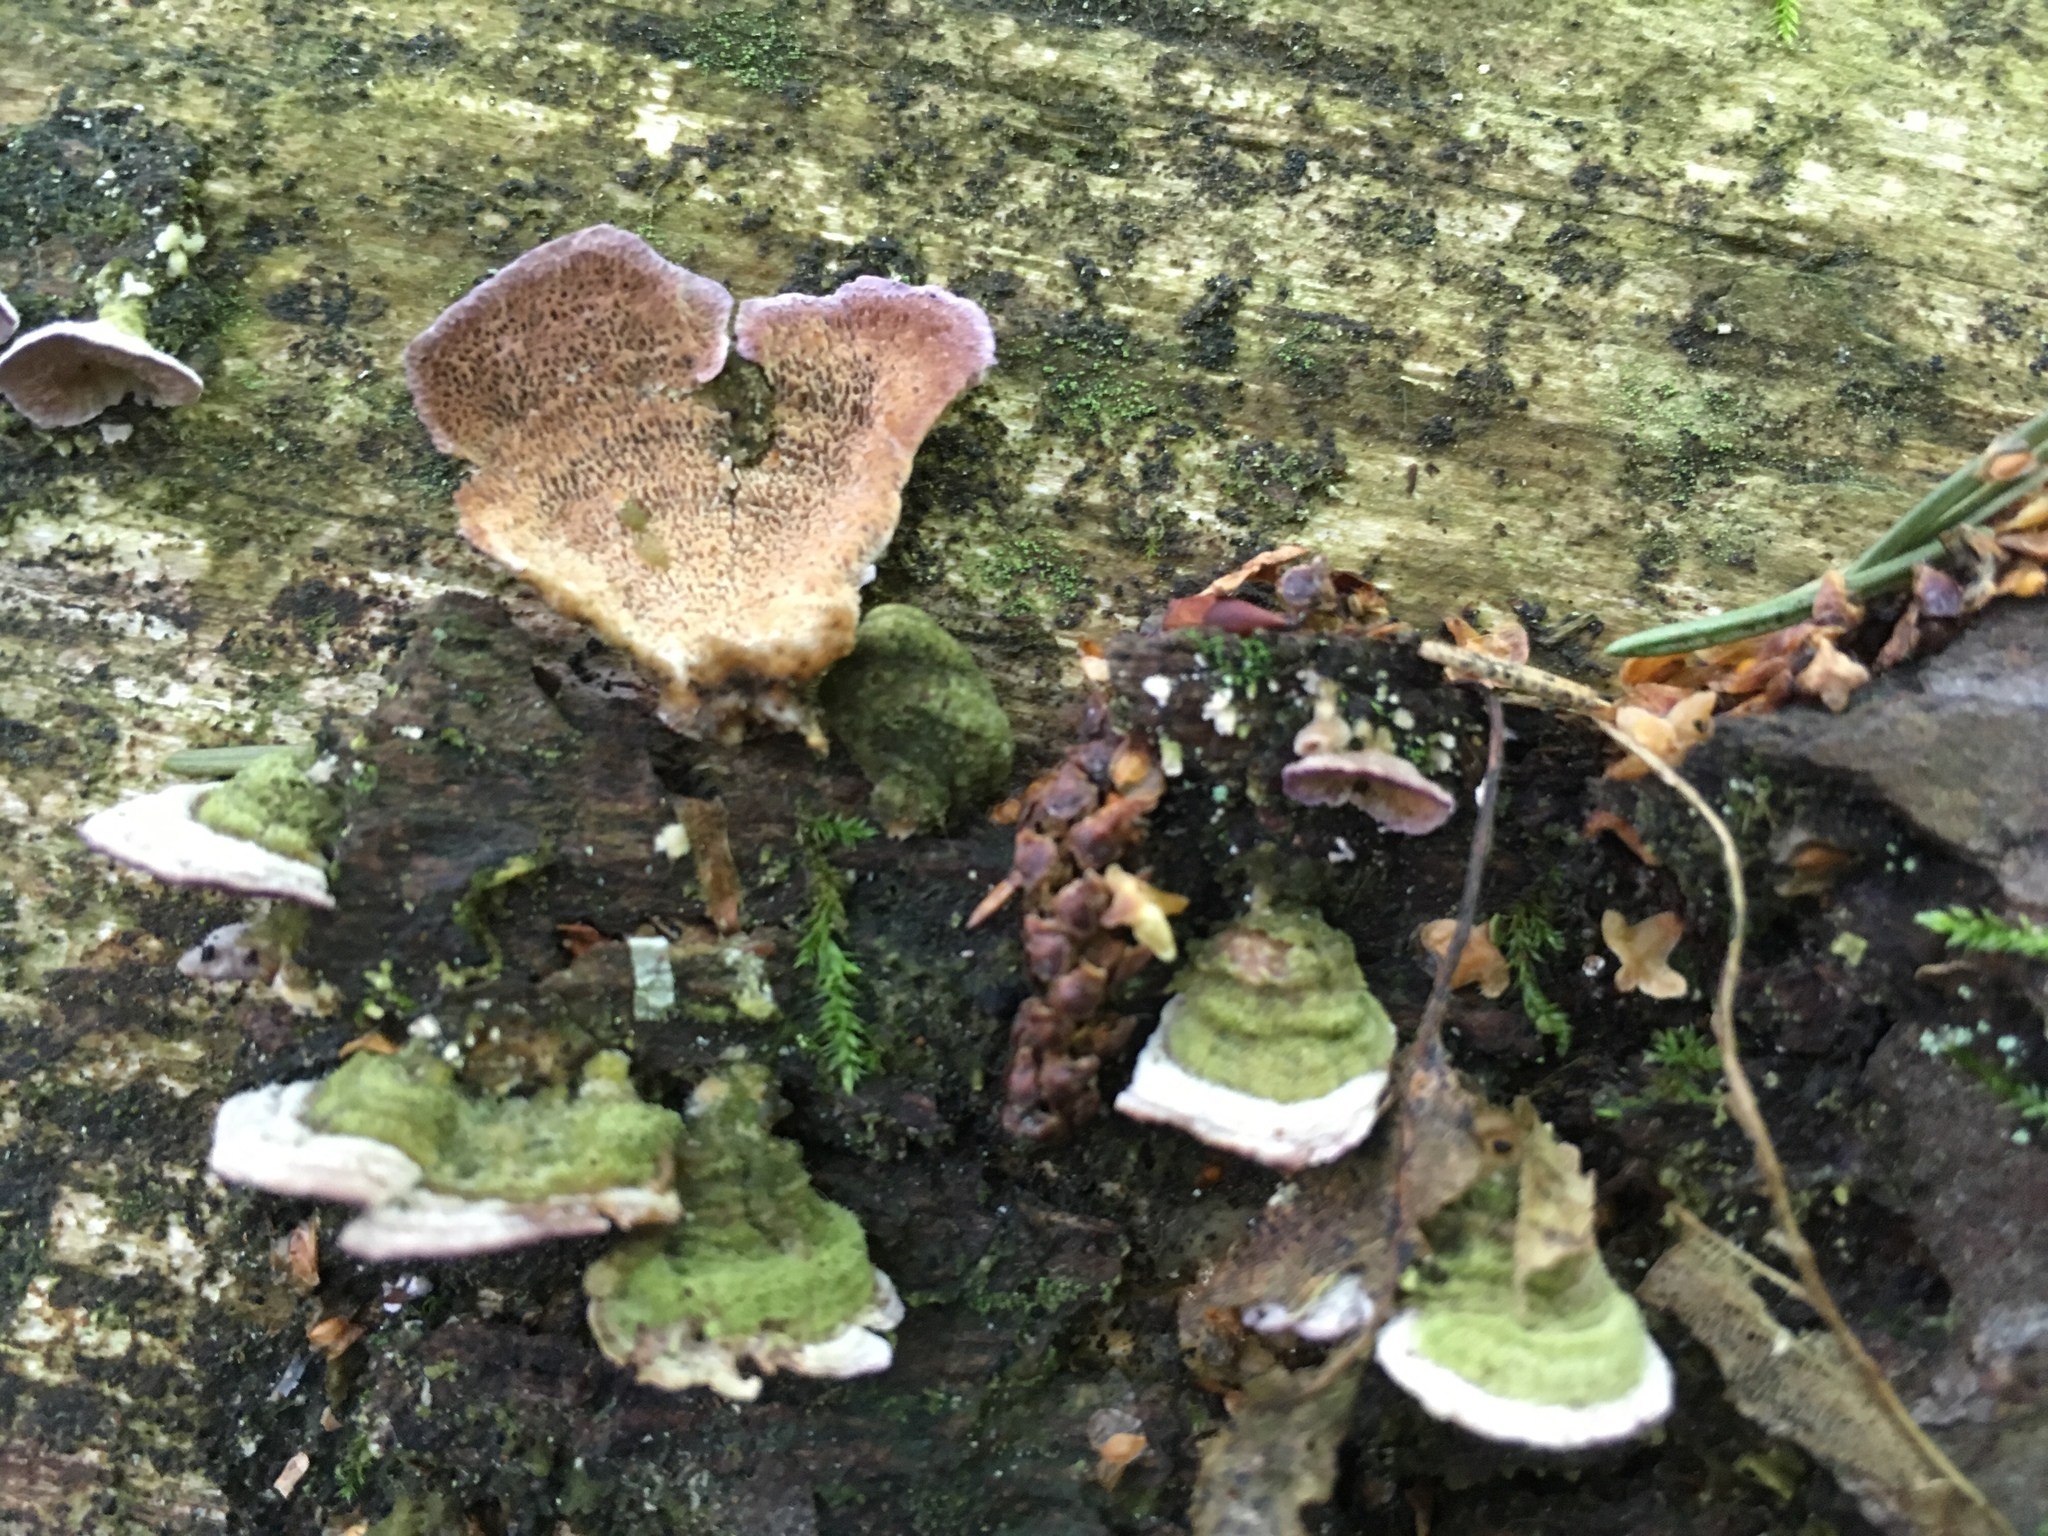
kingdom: Fungi
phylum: Basidiomycota
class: Agaricomycetes
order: Hymenochaetales
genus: Trichaptum
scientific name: Trichaptum abietinum
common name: Purplepore bracket
